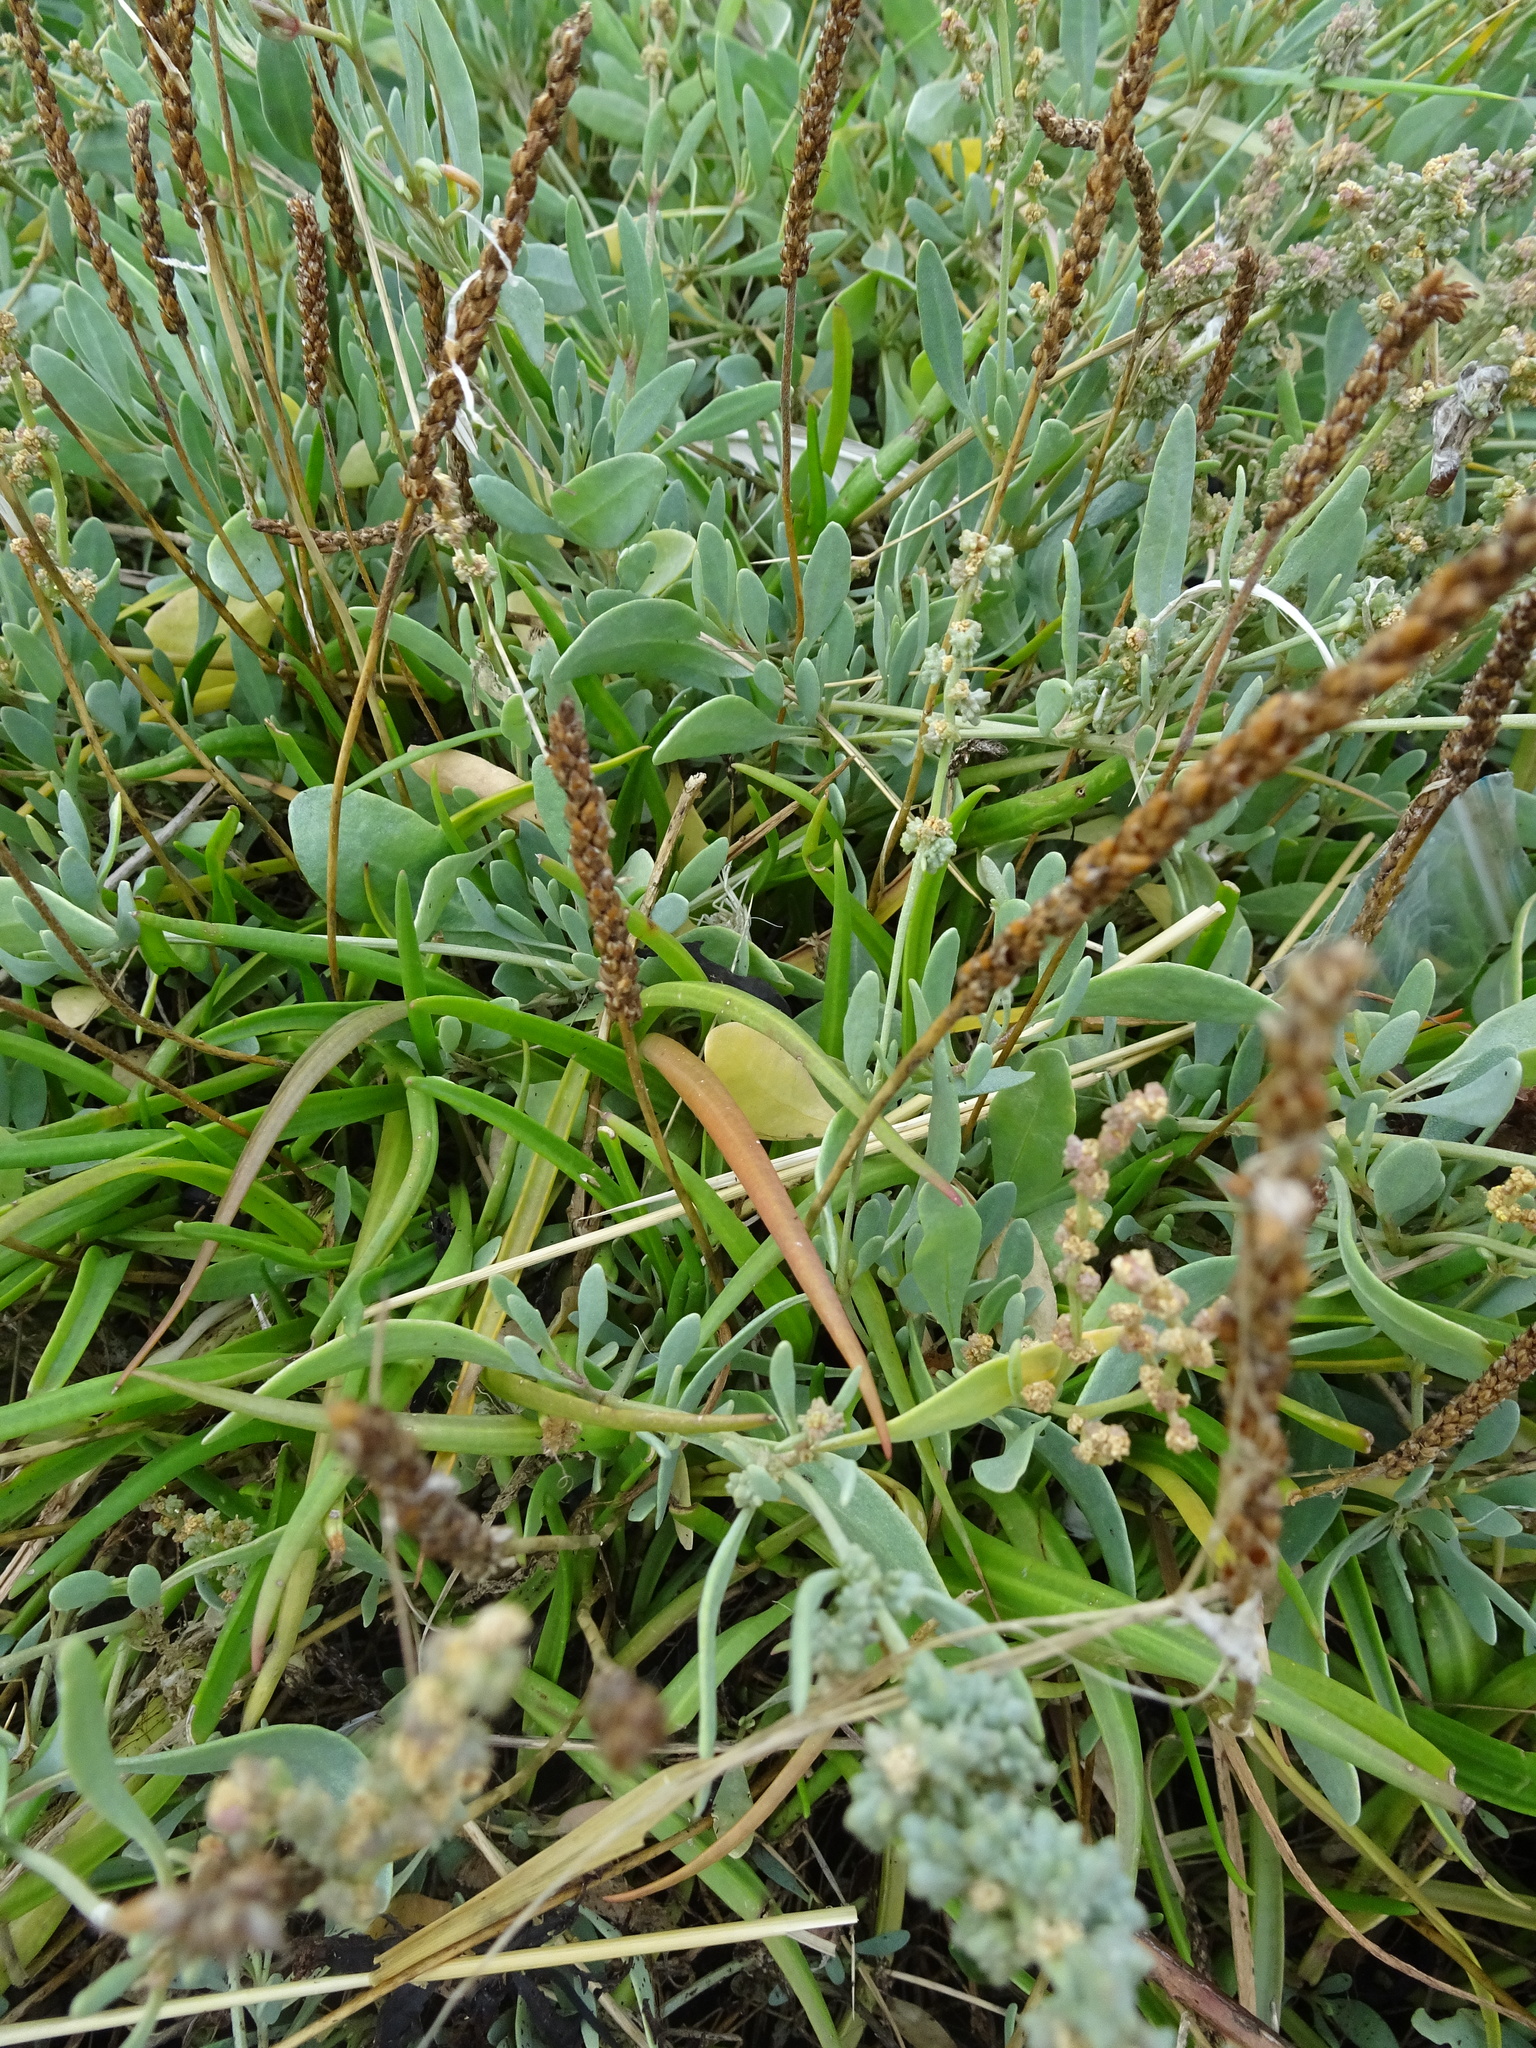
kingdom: Plantae
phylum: Tracheophyta
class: Magnoliopsida
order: Lamiales
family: Plantaginaceae
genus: Plantago
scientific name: Plantago maritima
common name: Sea plantain
